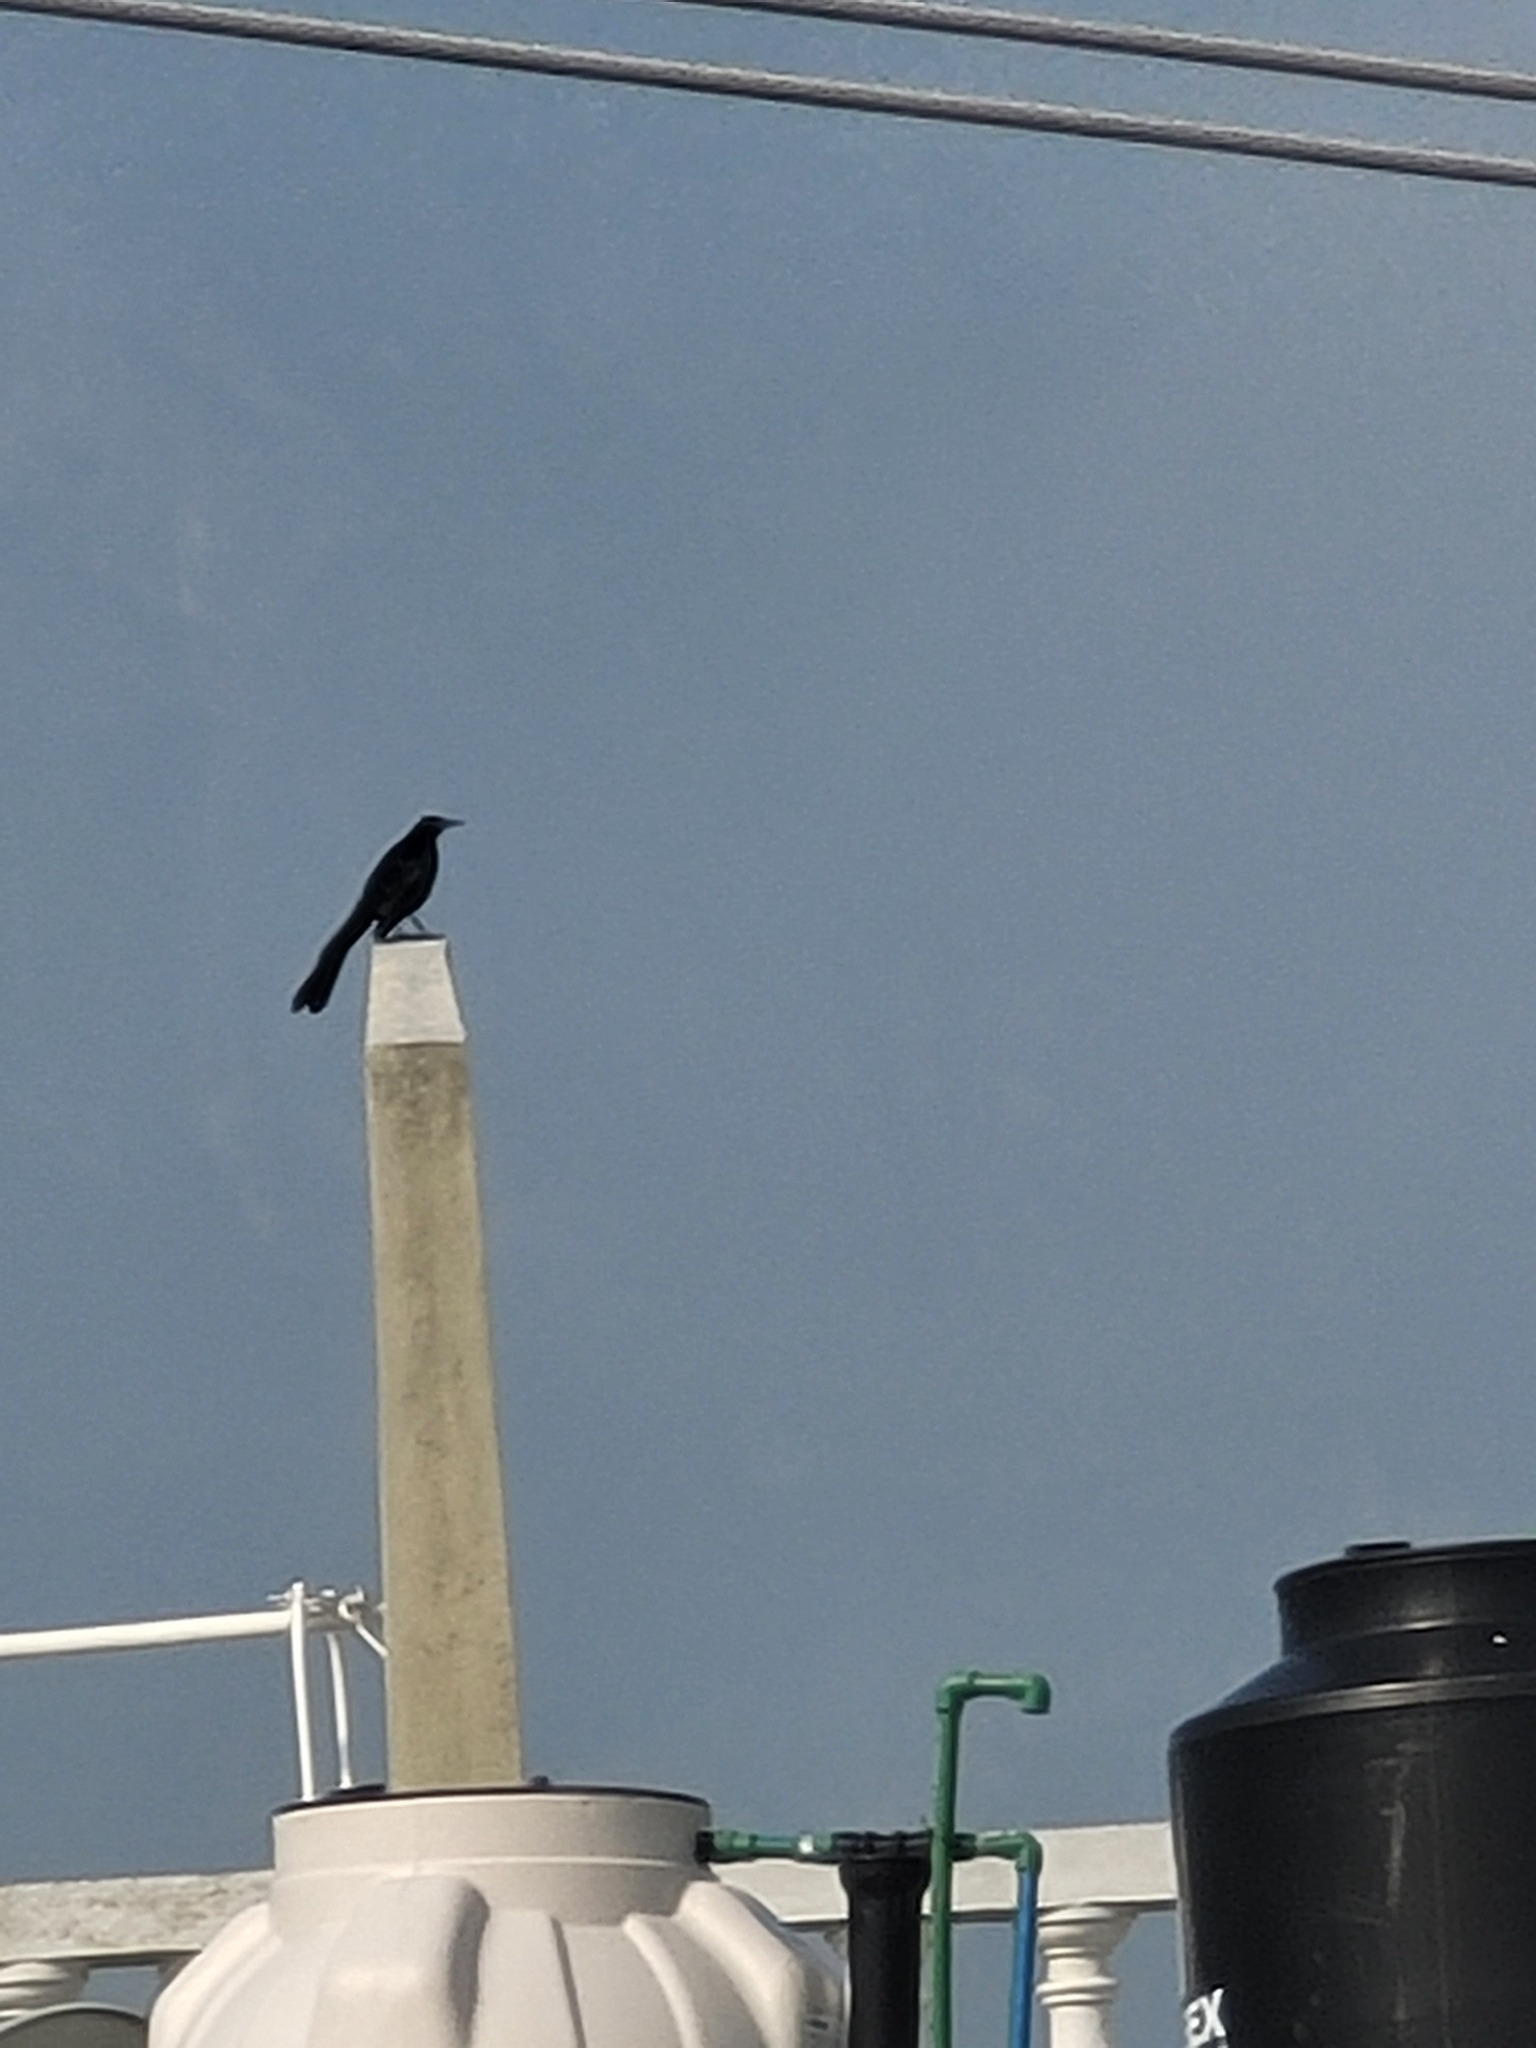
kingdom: Animalia
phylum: Chordata
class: Aves
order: Passeriformes
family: Icteridae
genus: Quiscalus
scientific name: Quiscalus mexicanus
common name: Great-tailed grackle
